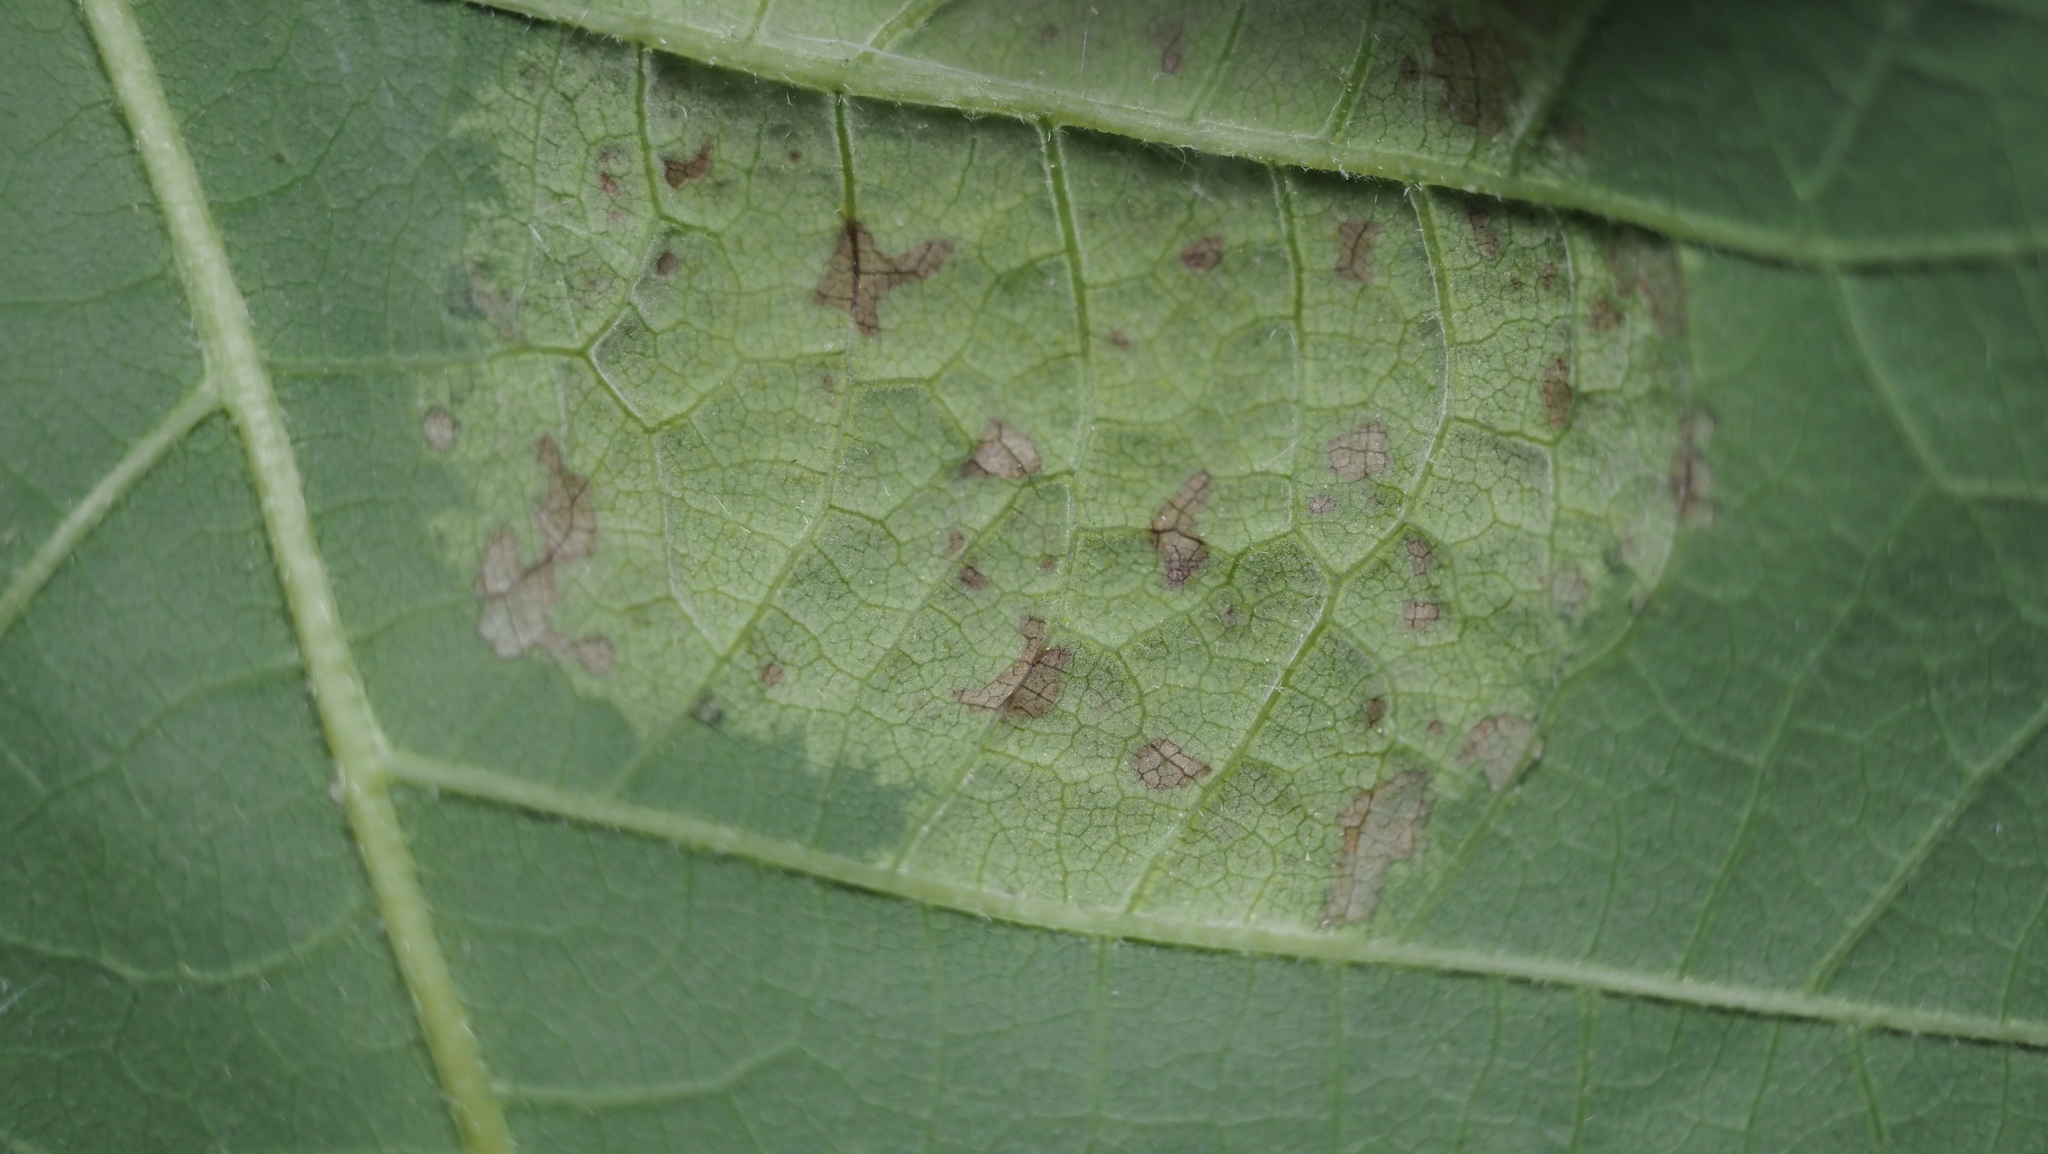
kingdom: Fungi
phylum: Ascomycota
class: Taphrinomycetes
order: Taphrinales
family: Taphrinaceae
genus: Taphrina
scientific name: Taphrina caerulescens
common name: Oak leaf blister
